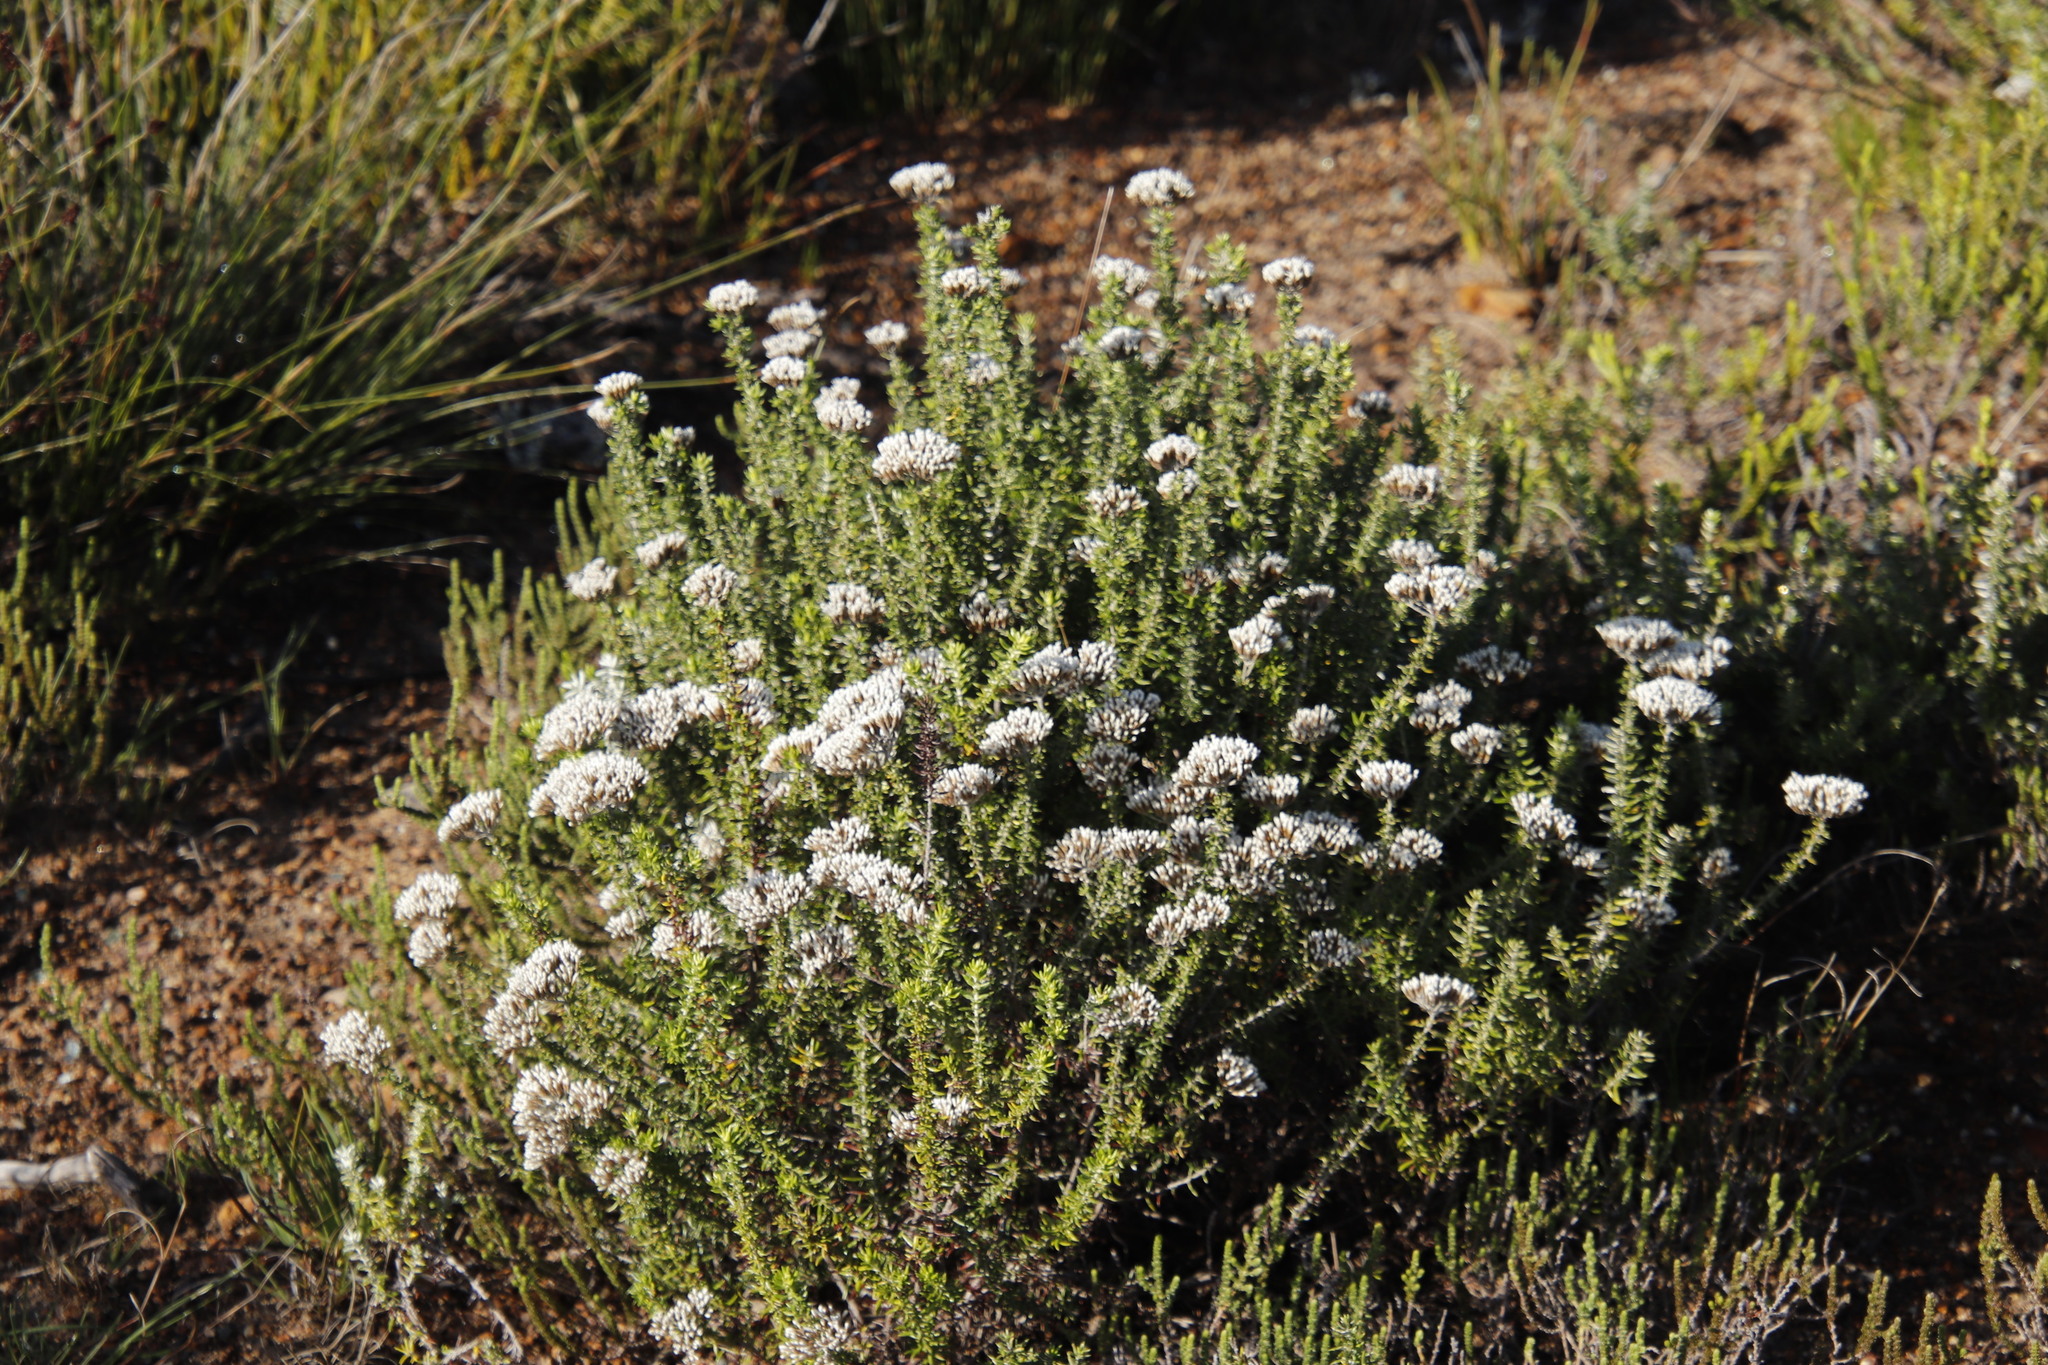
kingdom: Plantae
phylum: Tracheophyta
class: Magnoliopsida
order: Asterales
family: Asteraceae
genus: Metalasia
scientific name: Metalasia densa
